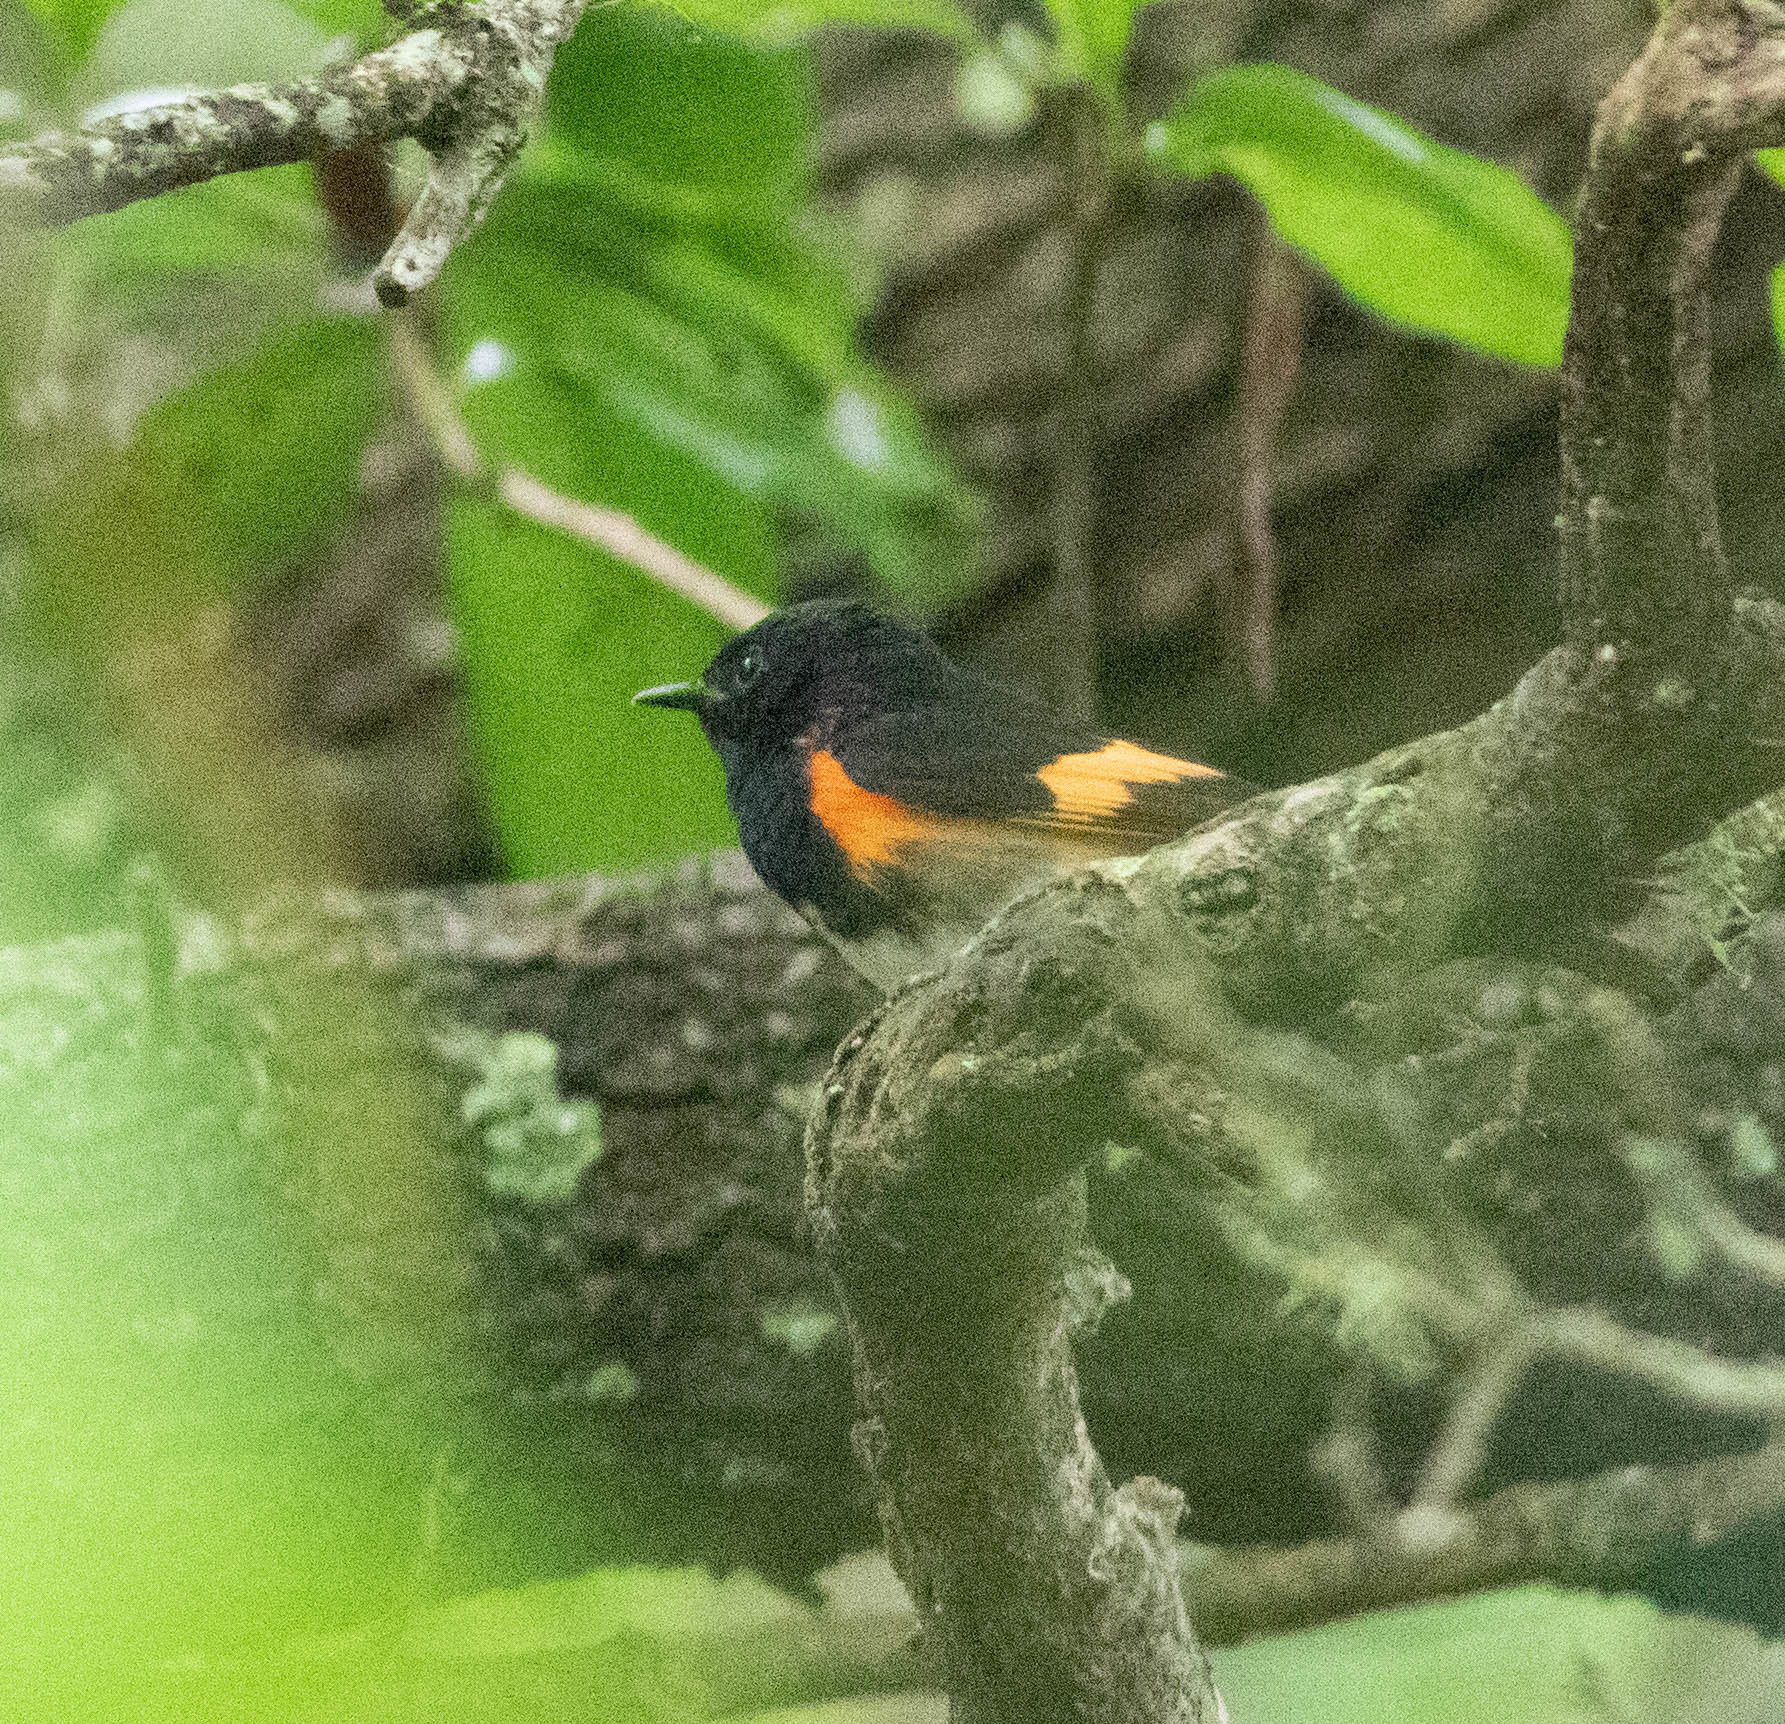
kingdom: Animalia
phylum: Chordata
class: Aves
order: Passeriformes
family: Parulidae
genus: Setophaga
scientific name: Setophaga ruticilla
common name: American redstart
